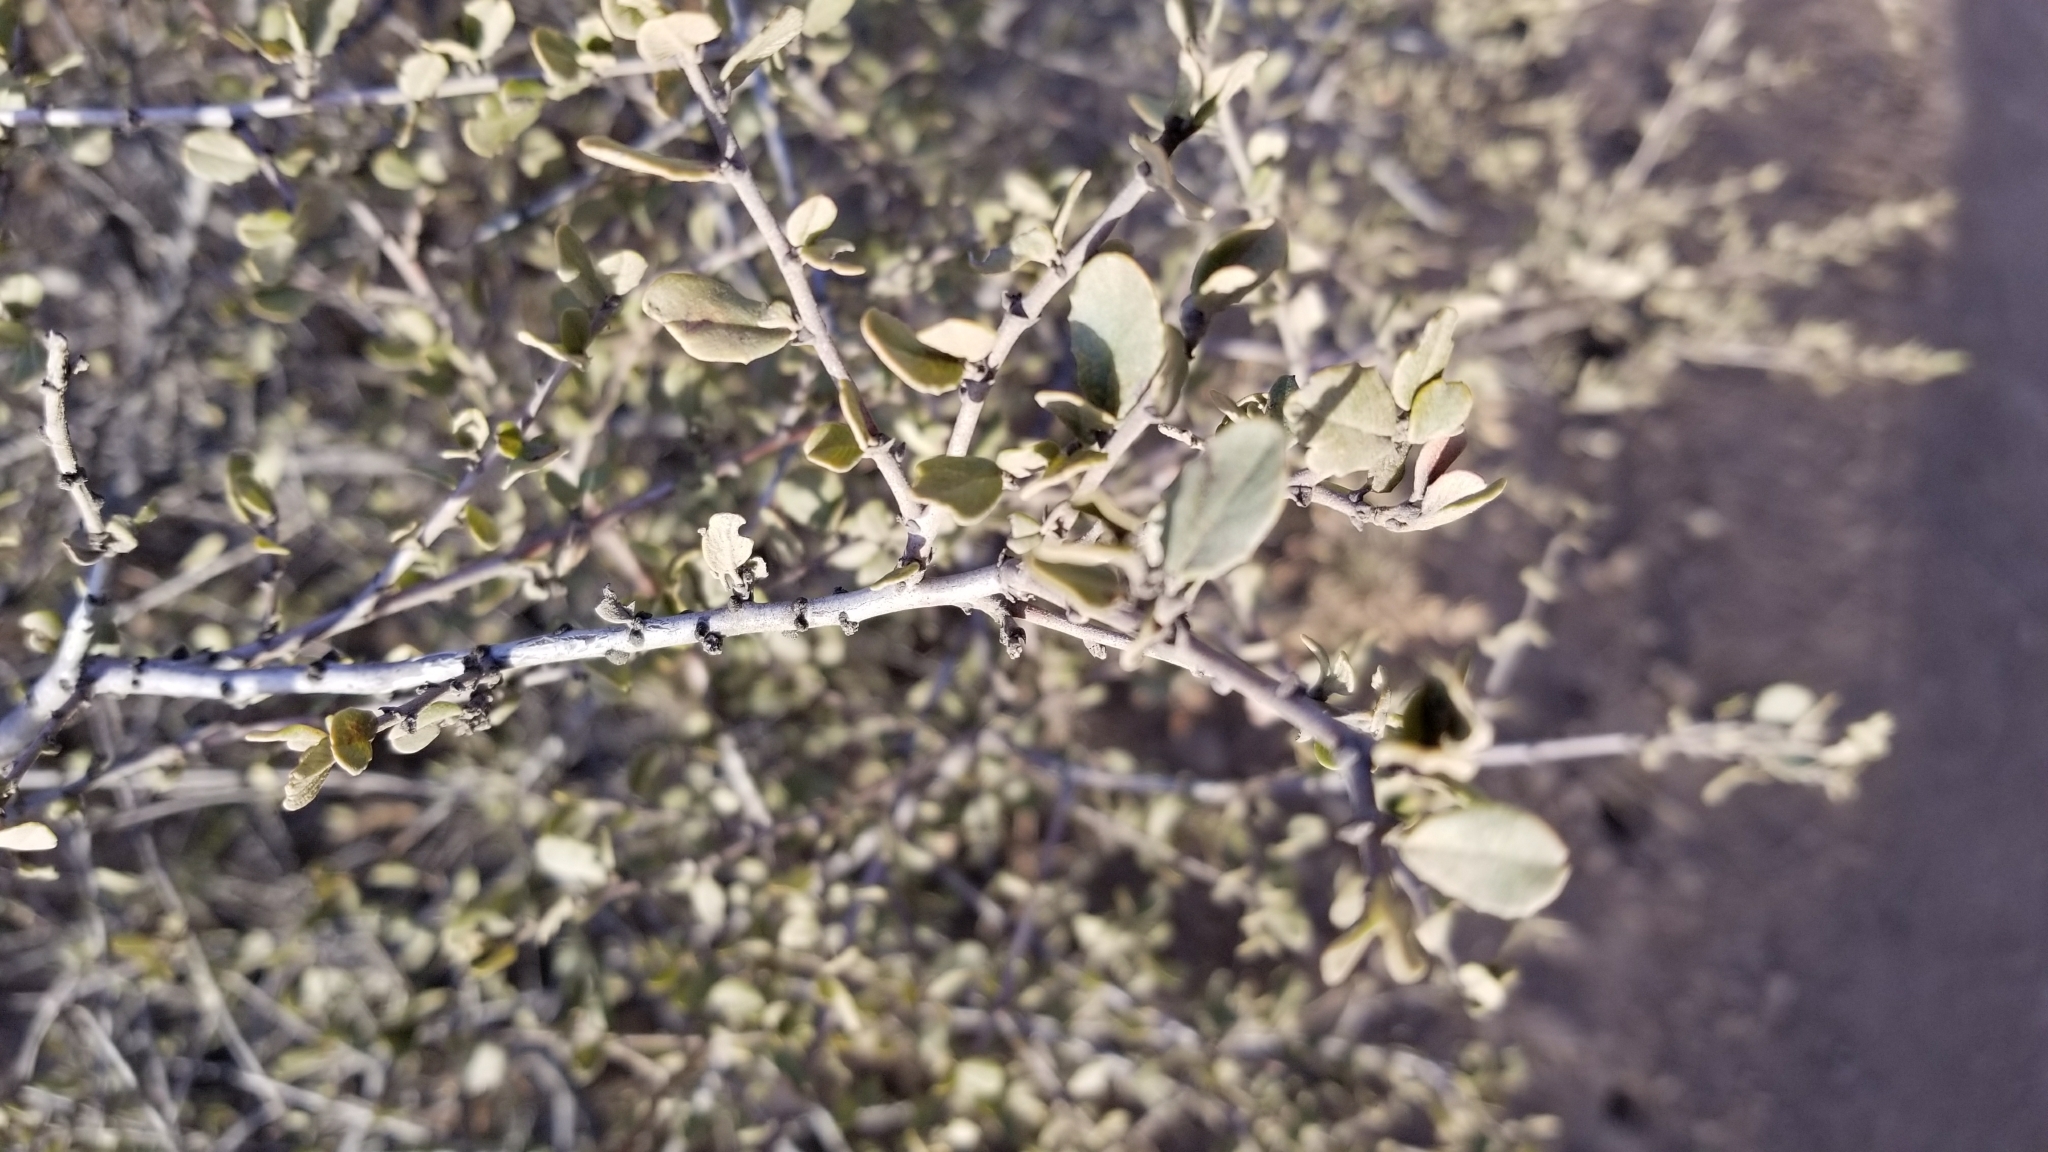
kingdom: Plantae
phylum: Tracheophyta
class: Magnoliopsida
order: Rosales
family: Rhamnaceae
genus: Ceanothus
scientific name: Ceanothus megacarpus
